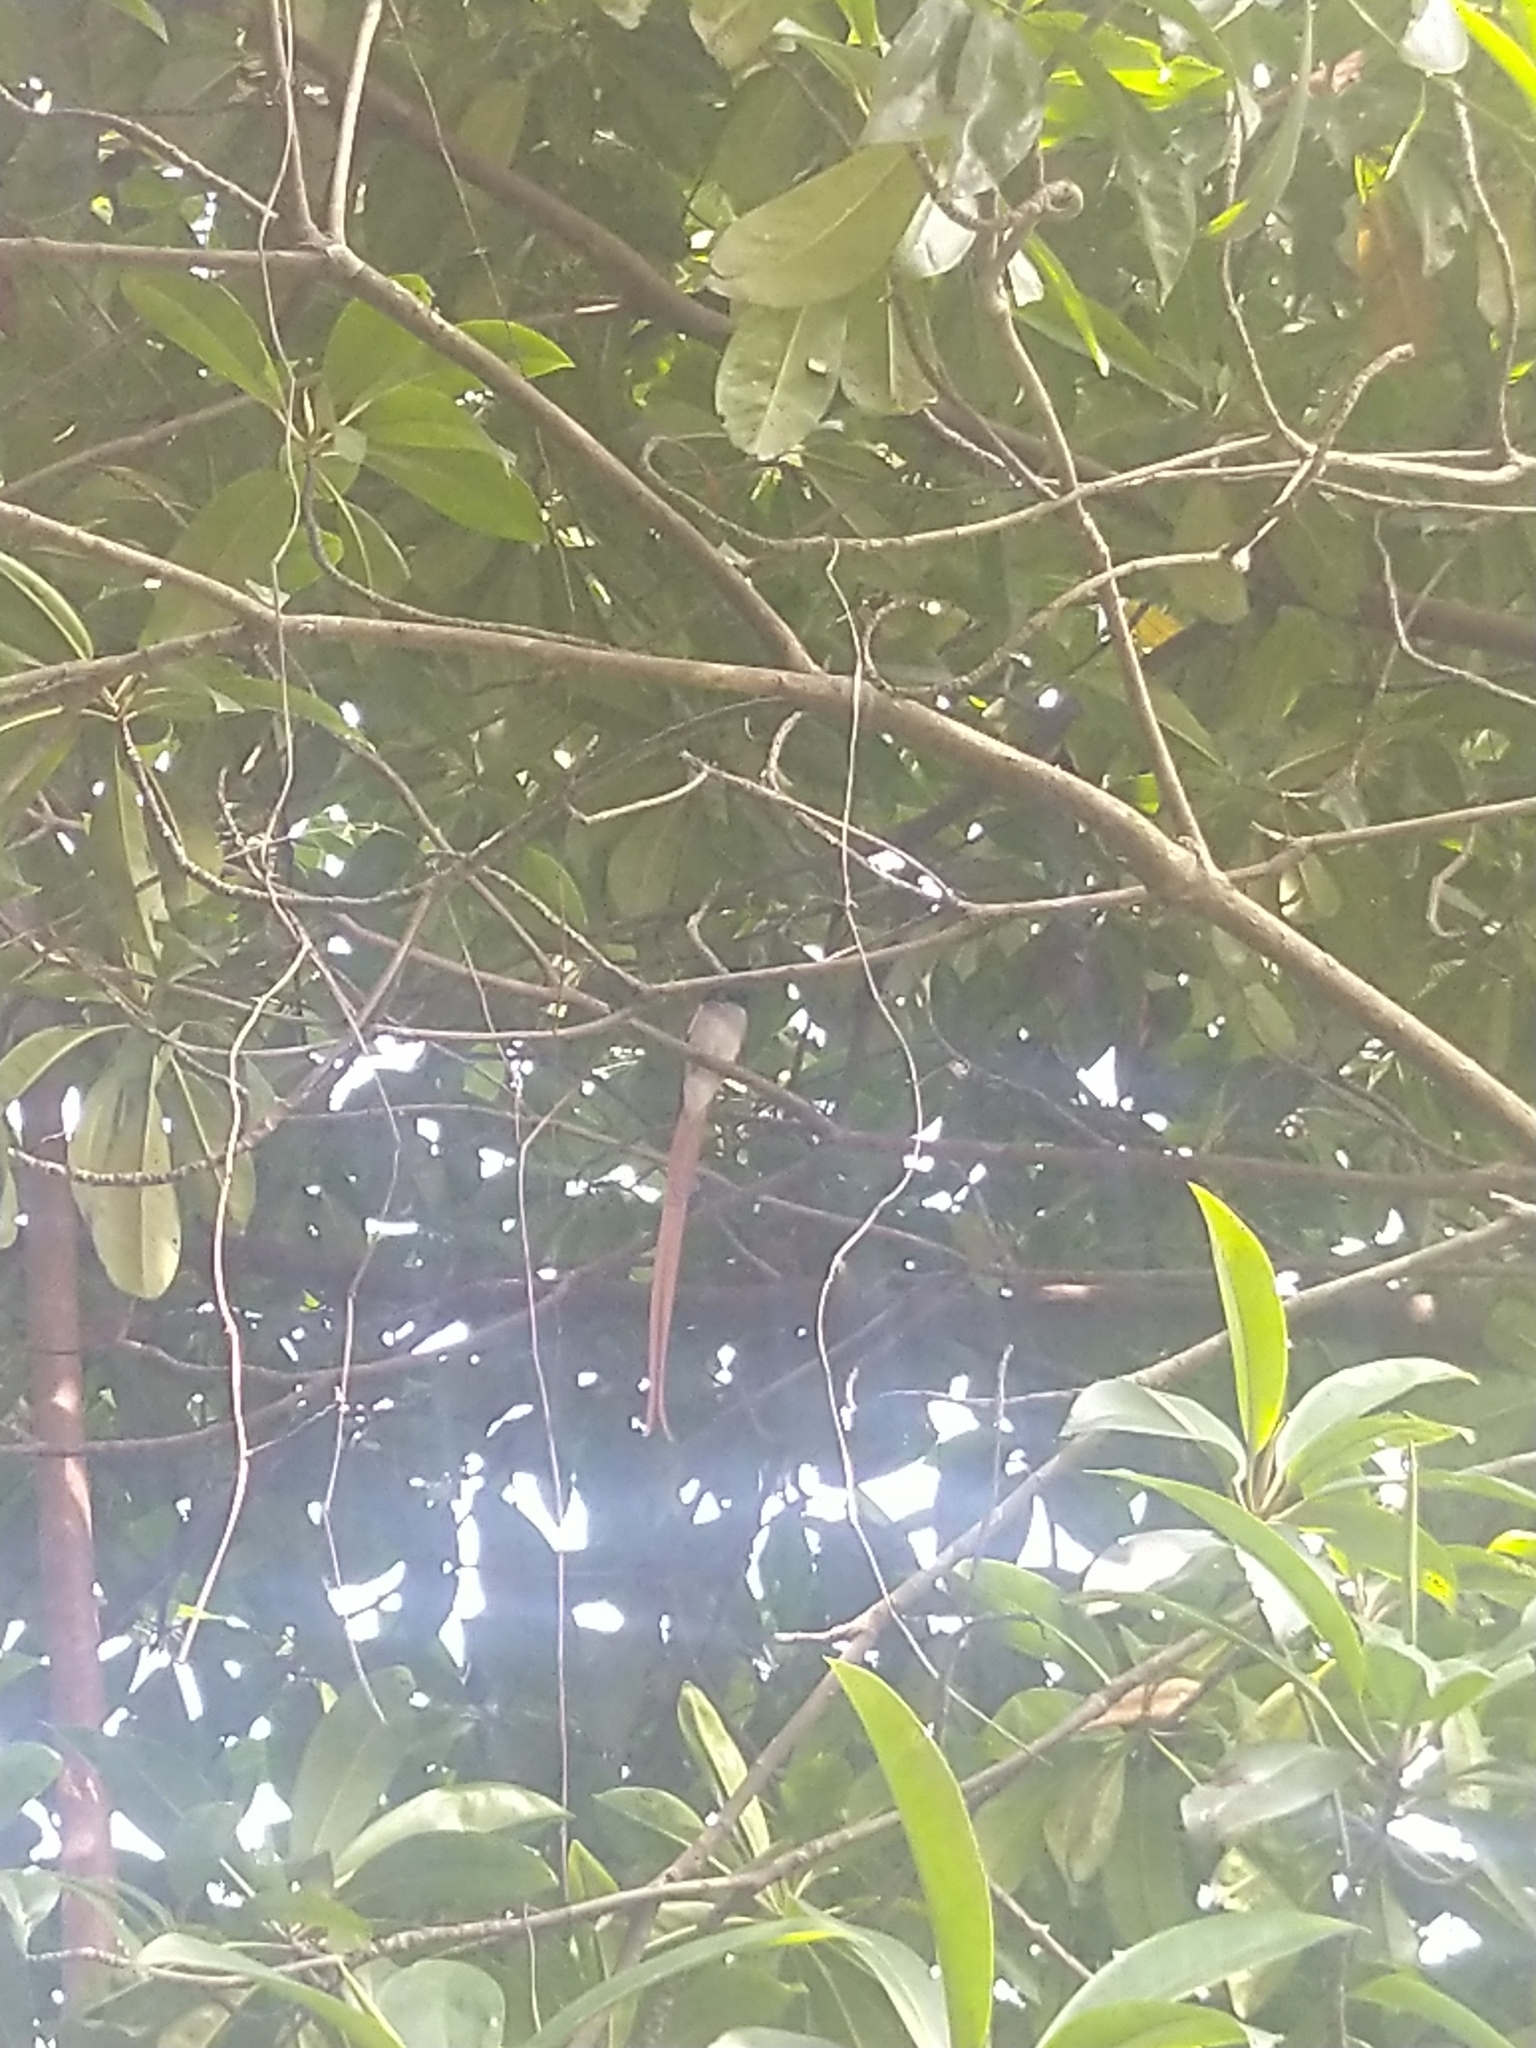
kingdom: Animalia
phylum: Chordata
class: Aves
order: Passeriformes
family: Monarchidae
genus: Terpsiphone
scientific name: Terpsiphone paradisi
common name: Indian paradise flycatcher
